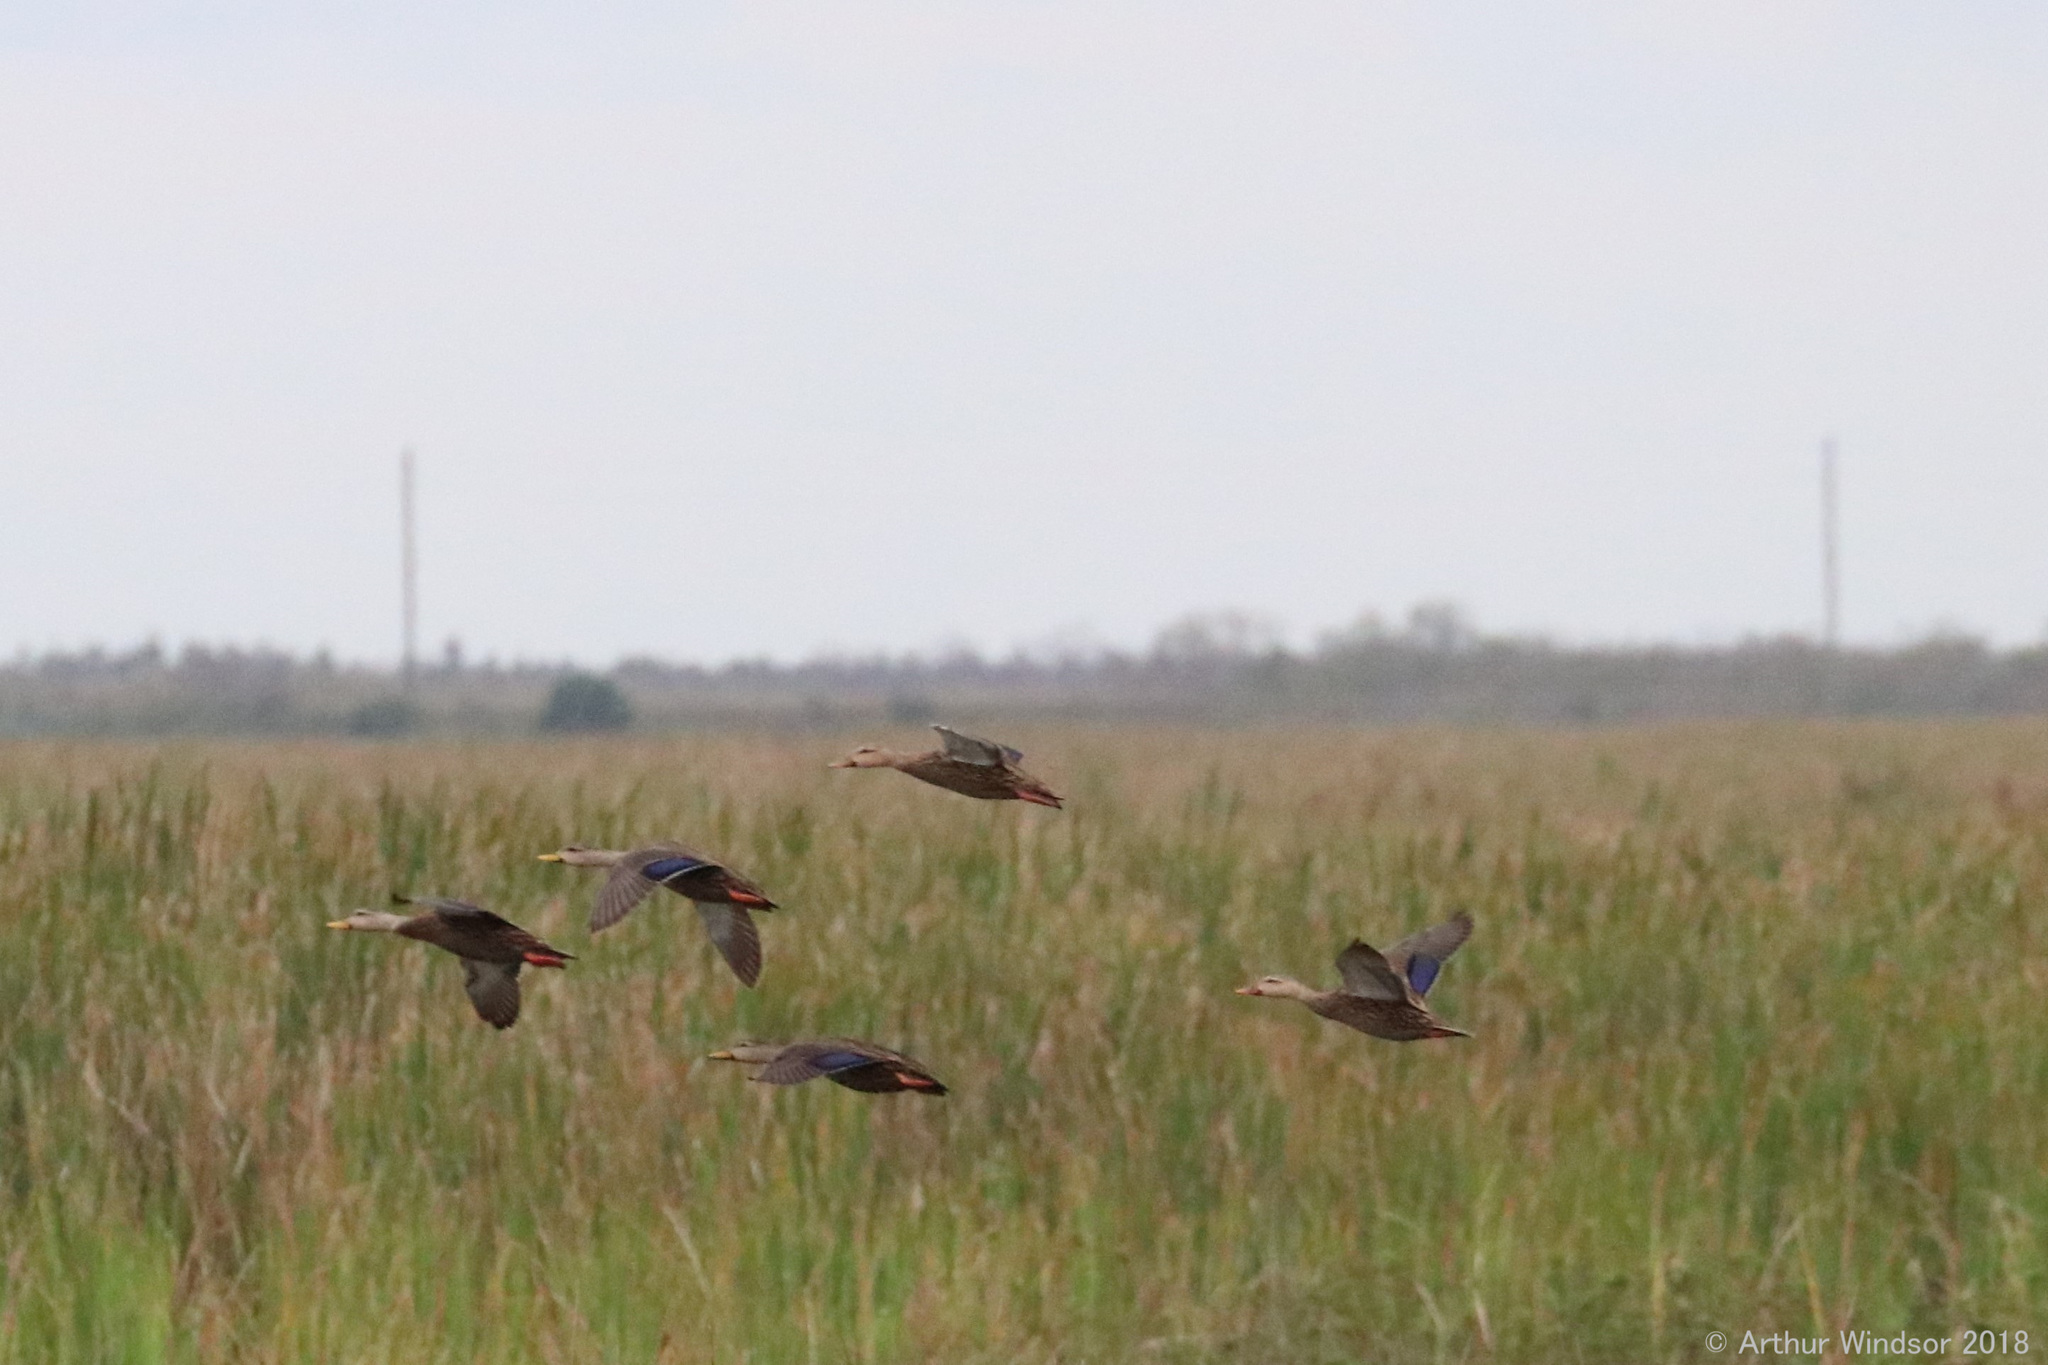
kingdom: Animalia
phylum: Chordata
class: Aves
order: Anseriformes
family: Anatidae
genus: Anas
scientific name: Anas fulvigula
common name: Mottled duck
